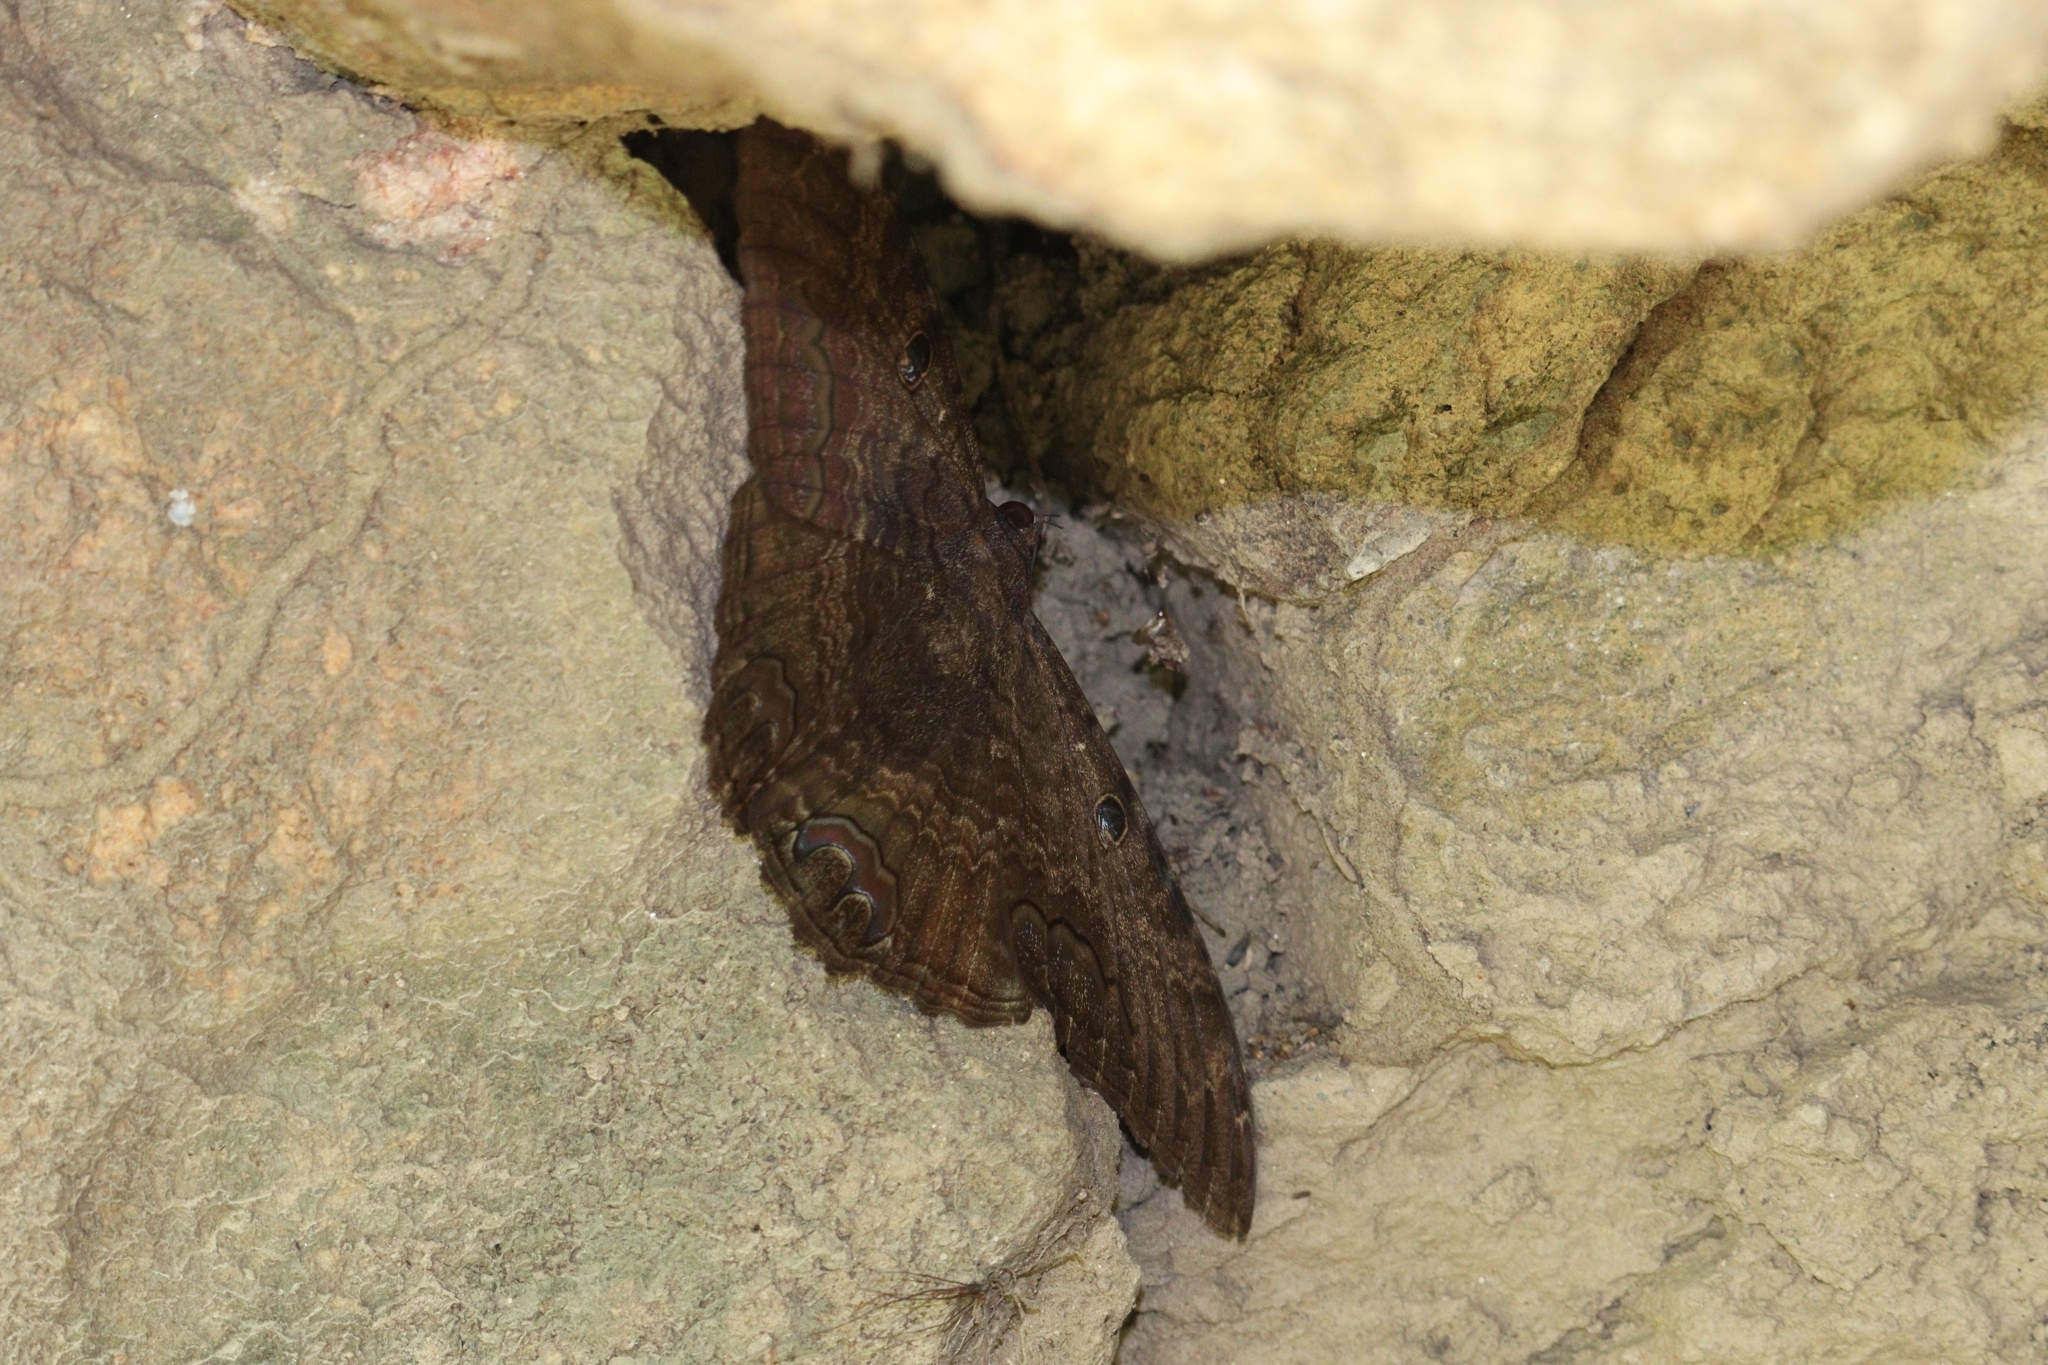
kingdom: Animalia
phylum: Arthropoda
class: Insecta
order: Lepidoptera
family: Erebidae
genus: Ascalapha
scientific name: Ascalapha odorata
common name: Black witch
